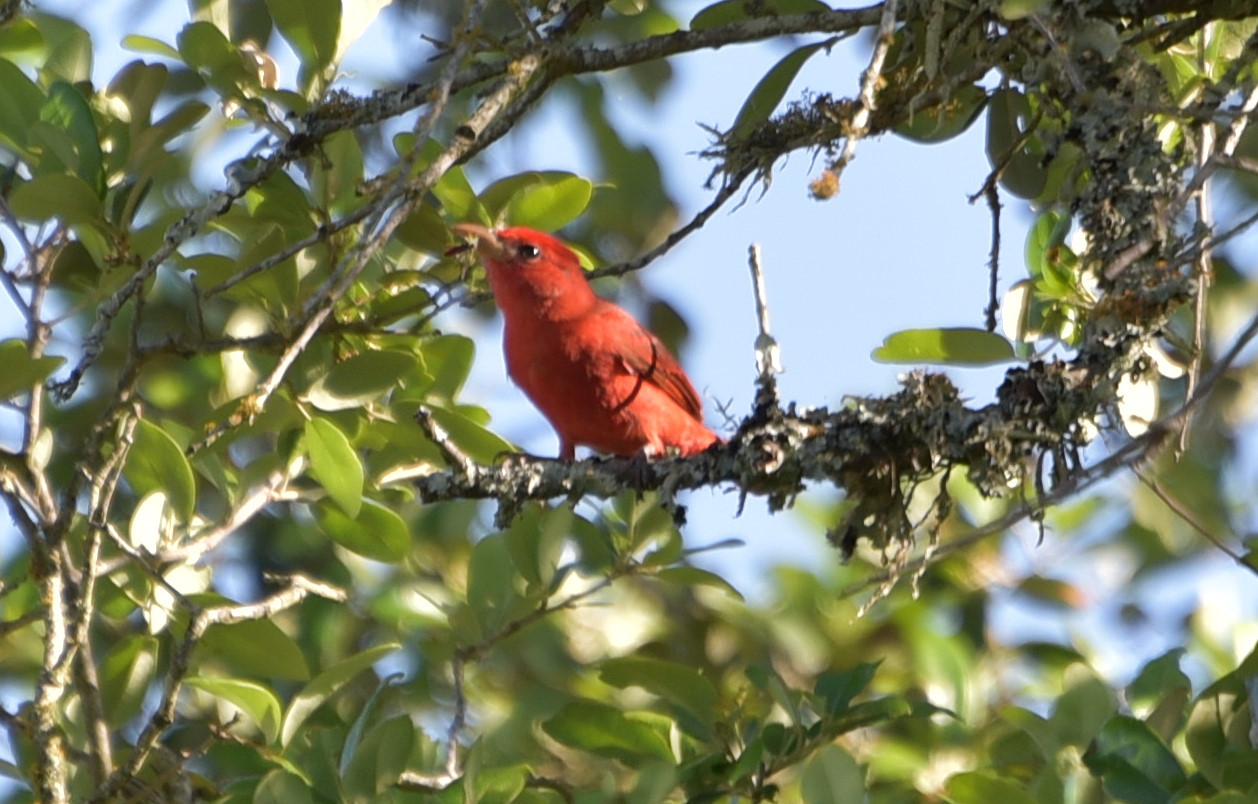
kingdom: Animalia
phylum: Chordata
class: Aves
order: Passeriformes
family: Cardinalidae
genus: Piranga
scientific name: Piranga rubra
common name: Summer tanager
